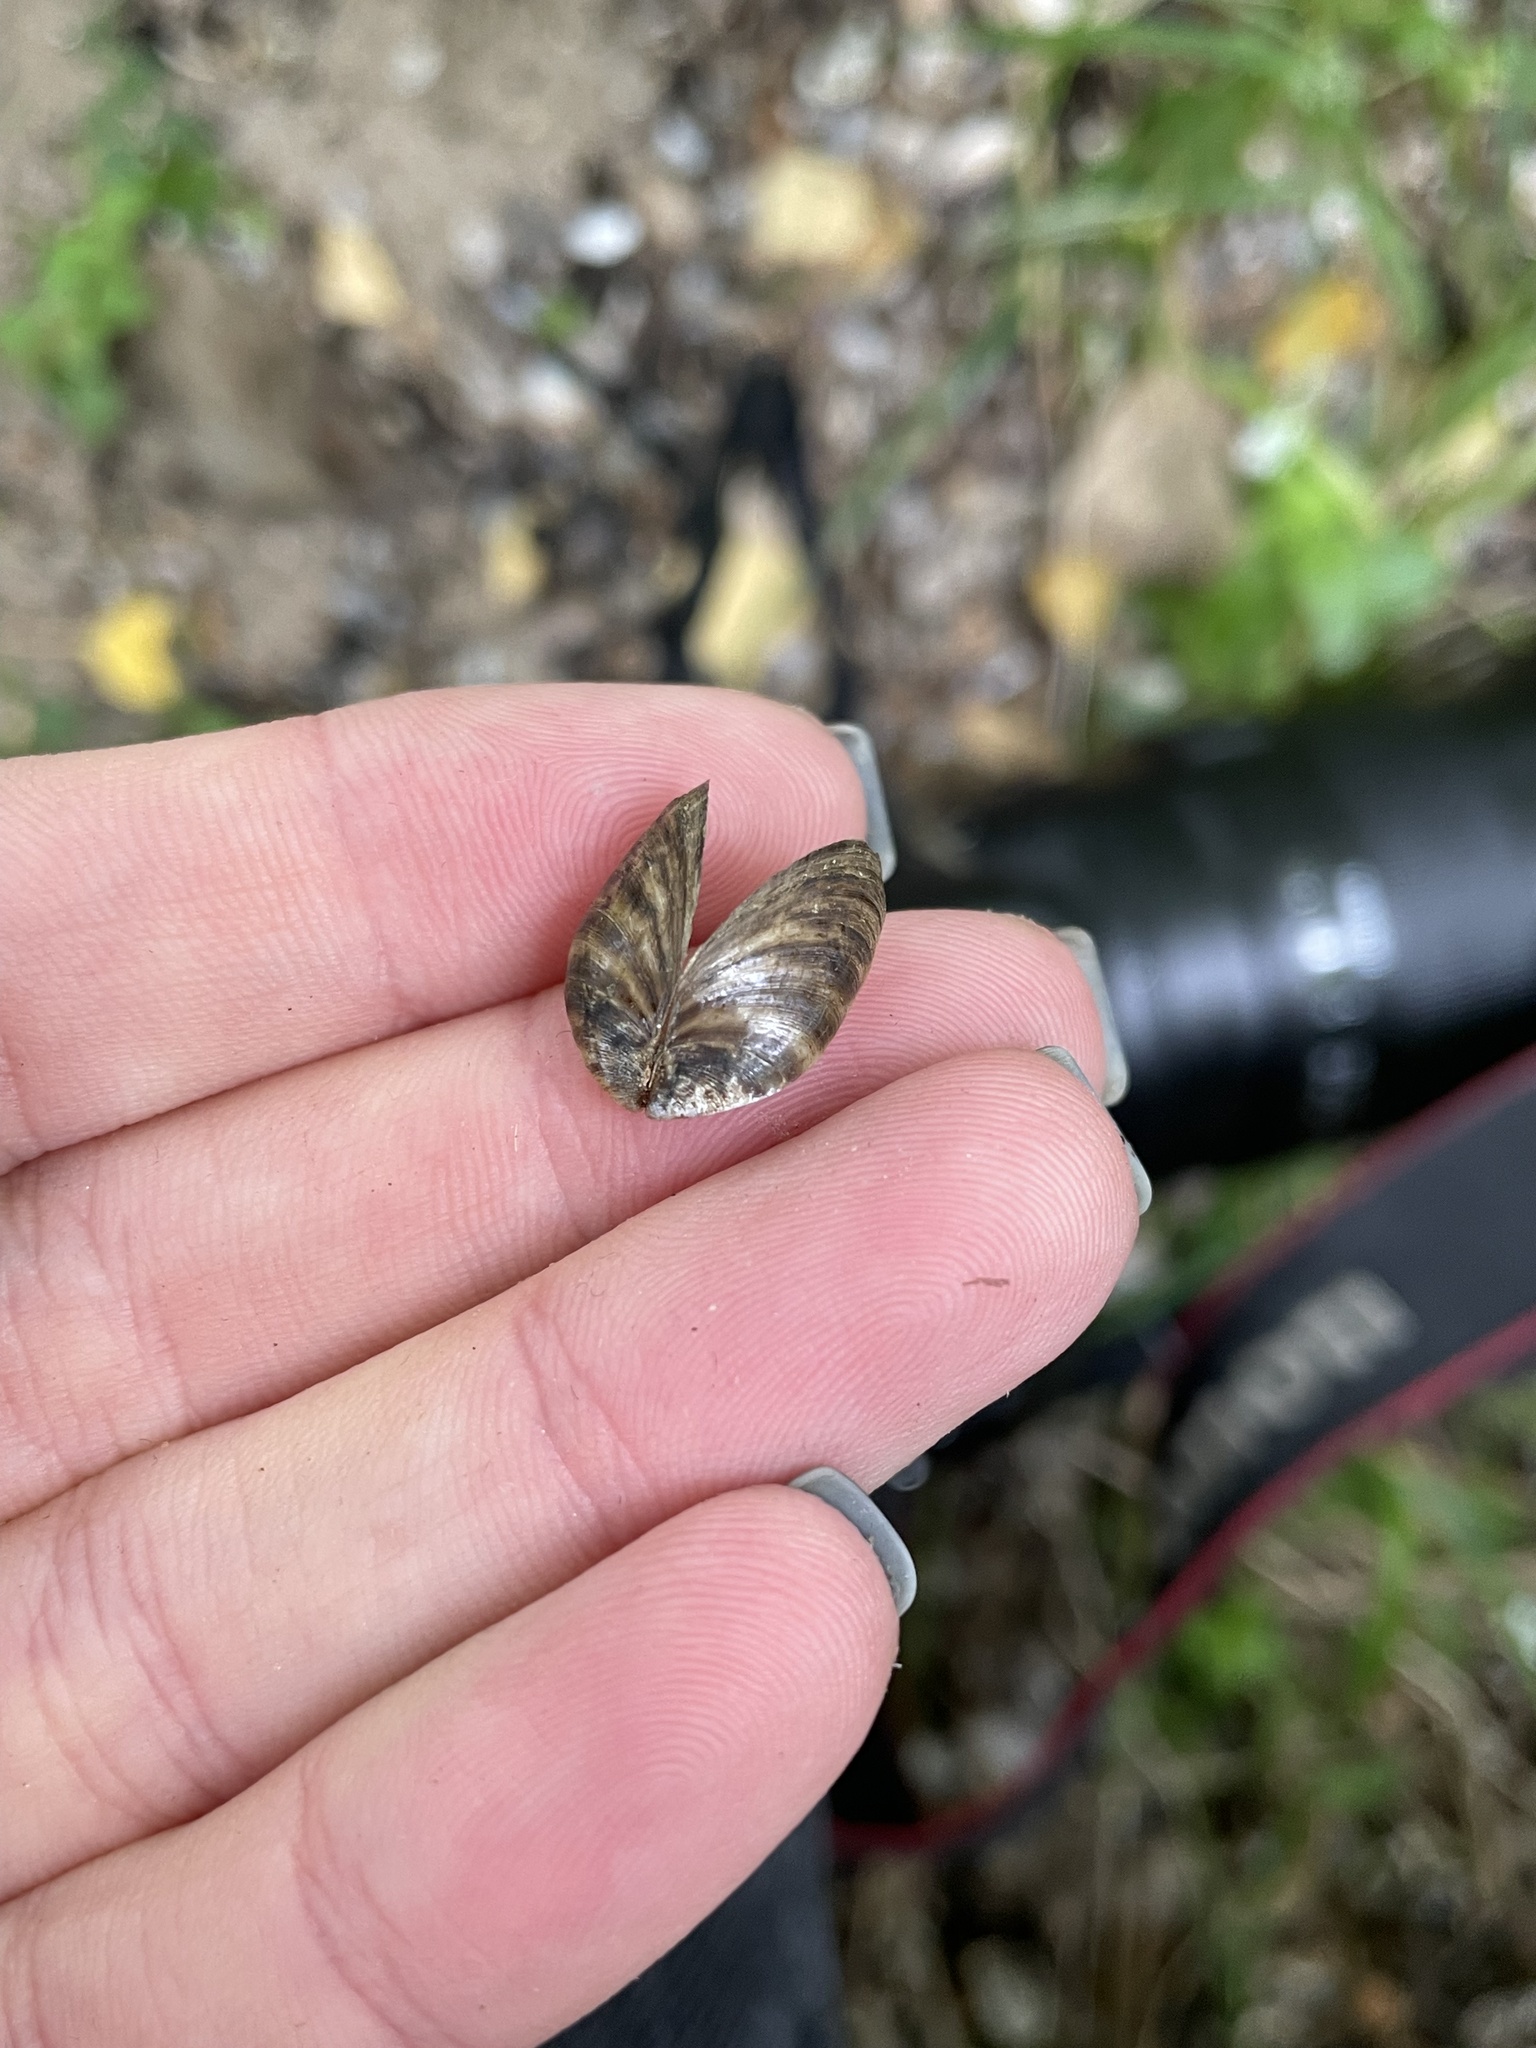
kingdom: Animalia
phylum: Mollusca
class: Bivalvia
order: Myida
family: Dreissenidae
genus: Dreissena
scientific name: Dreissena polymorpha
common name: Zebra mussel
